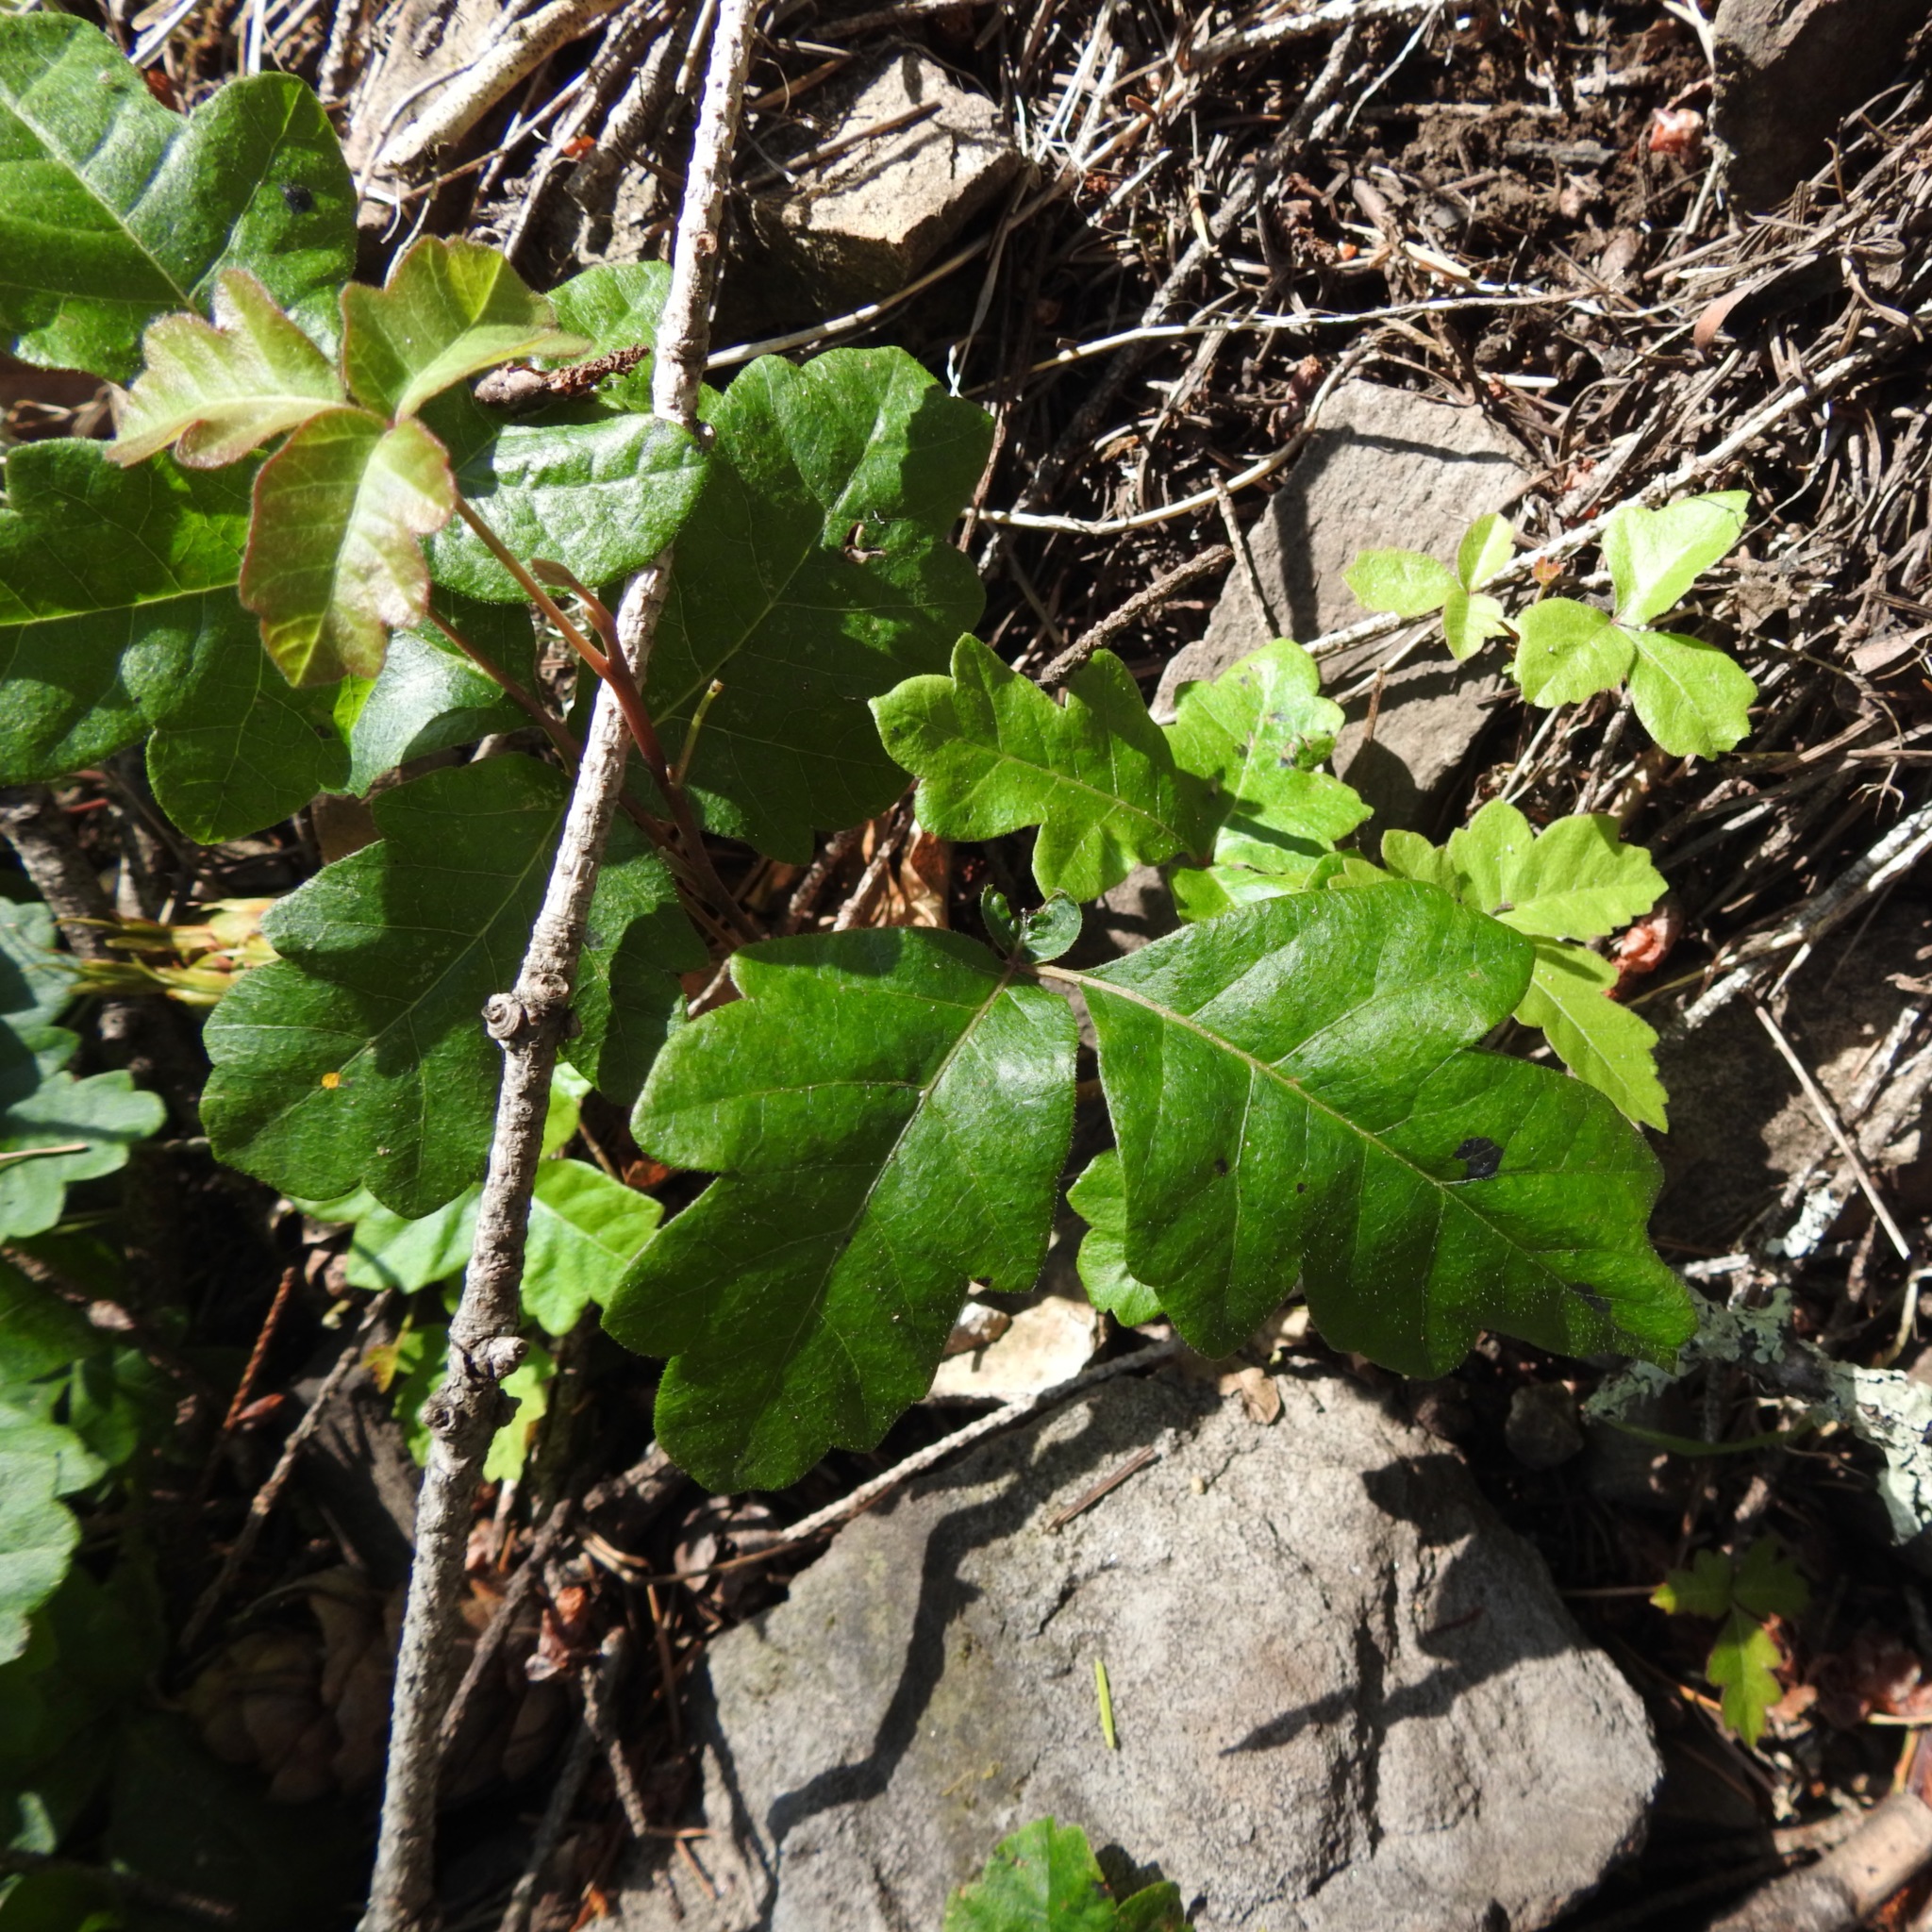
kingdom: Plantae
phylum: Tracheophyta
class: Magnoliopsida
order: Sapindales
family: Anacardiaceae
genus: Toxicodendron
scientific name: Toxicodendron diversilobum
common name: Pacific poison-oak
